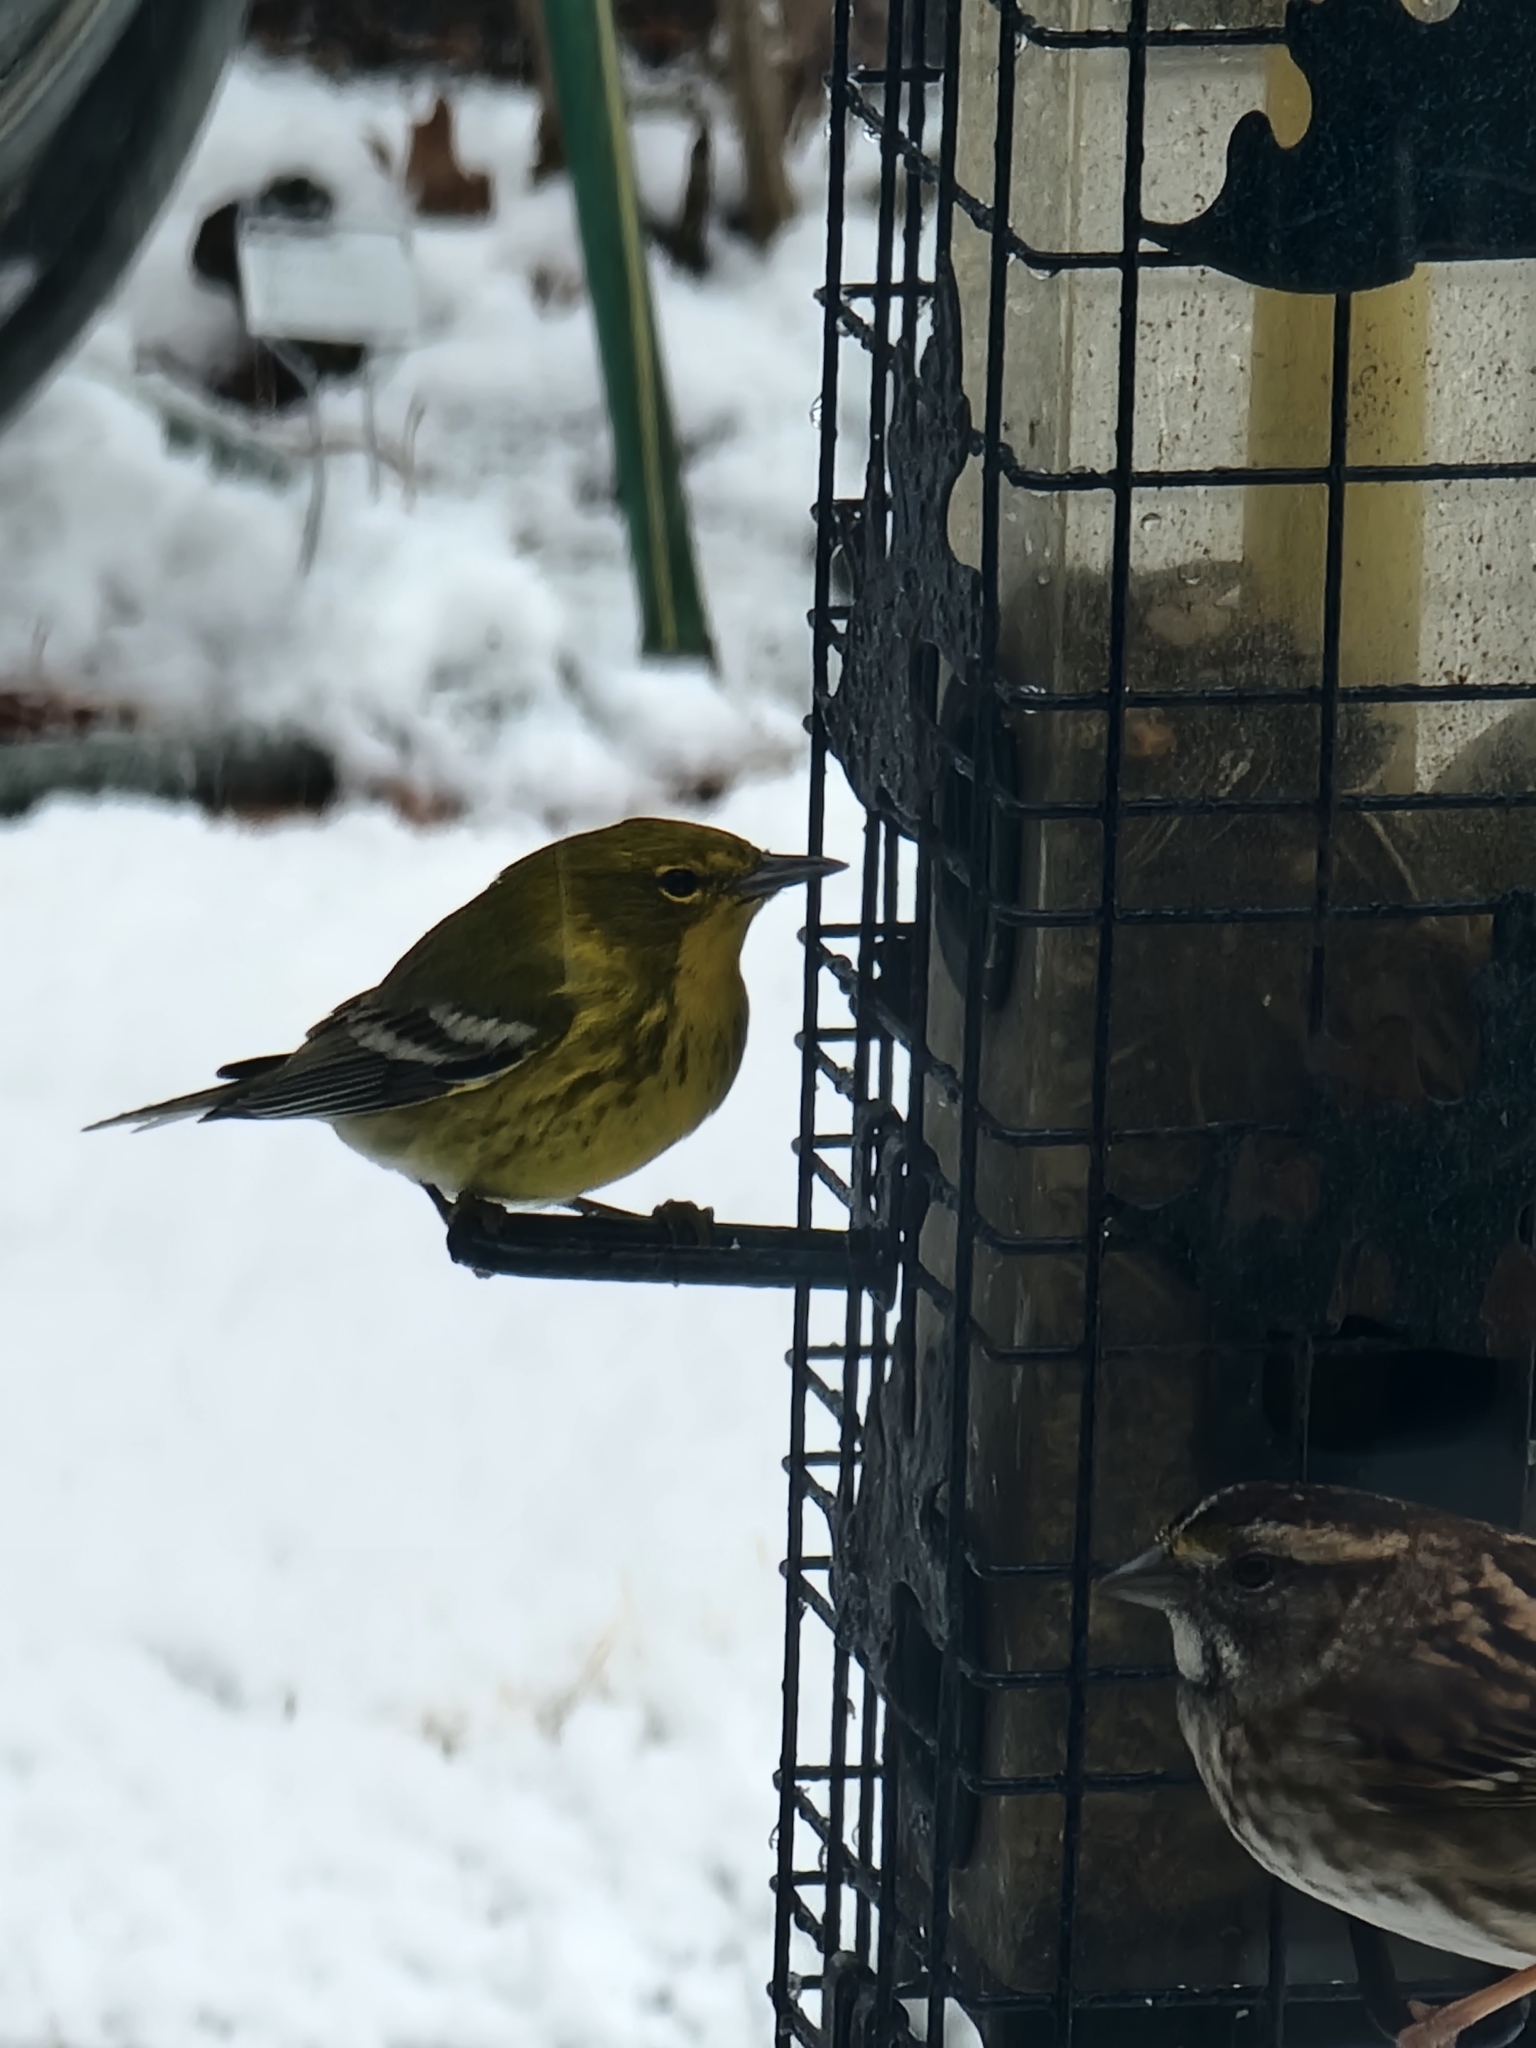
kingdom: Animalia
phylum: Chordata
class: Aves
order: Passeriformes
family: Parulidae
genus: Setophaga
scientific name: Setophaga pinus
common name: Pine warbler
